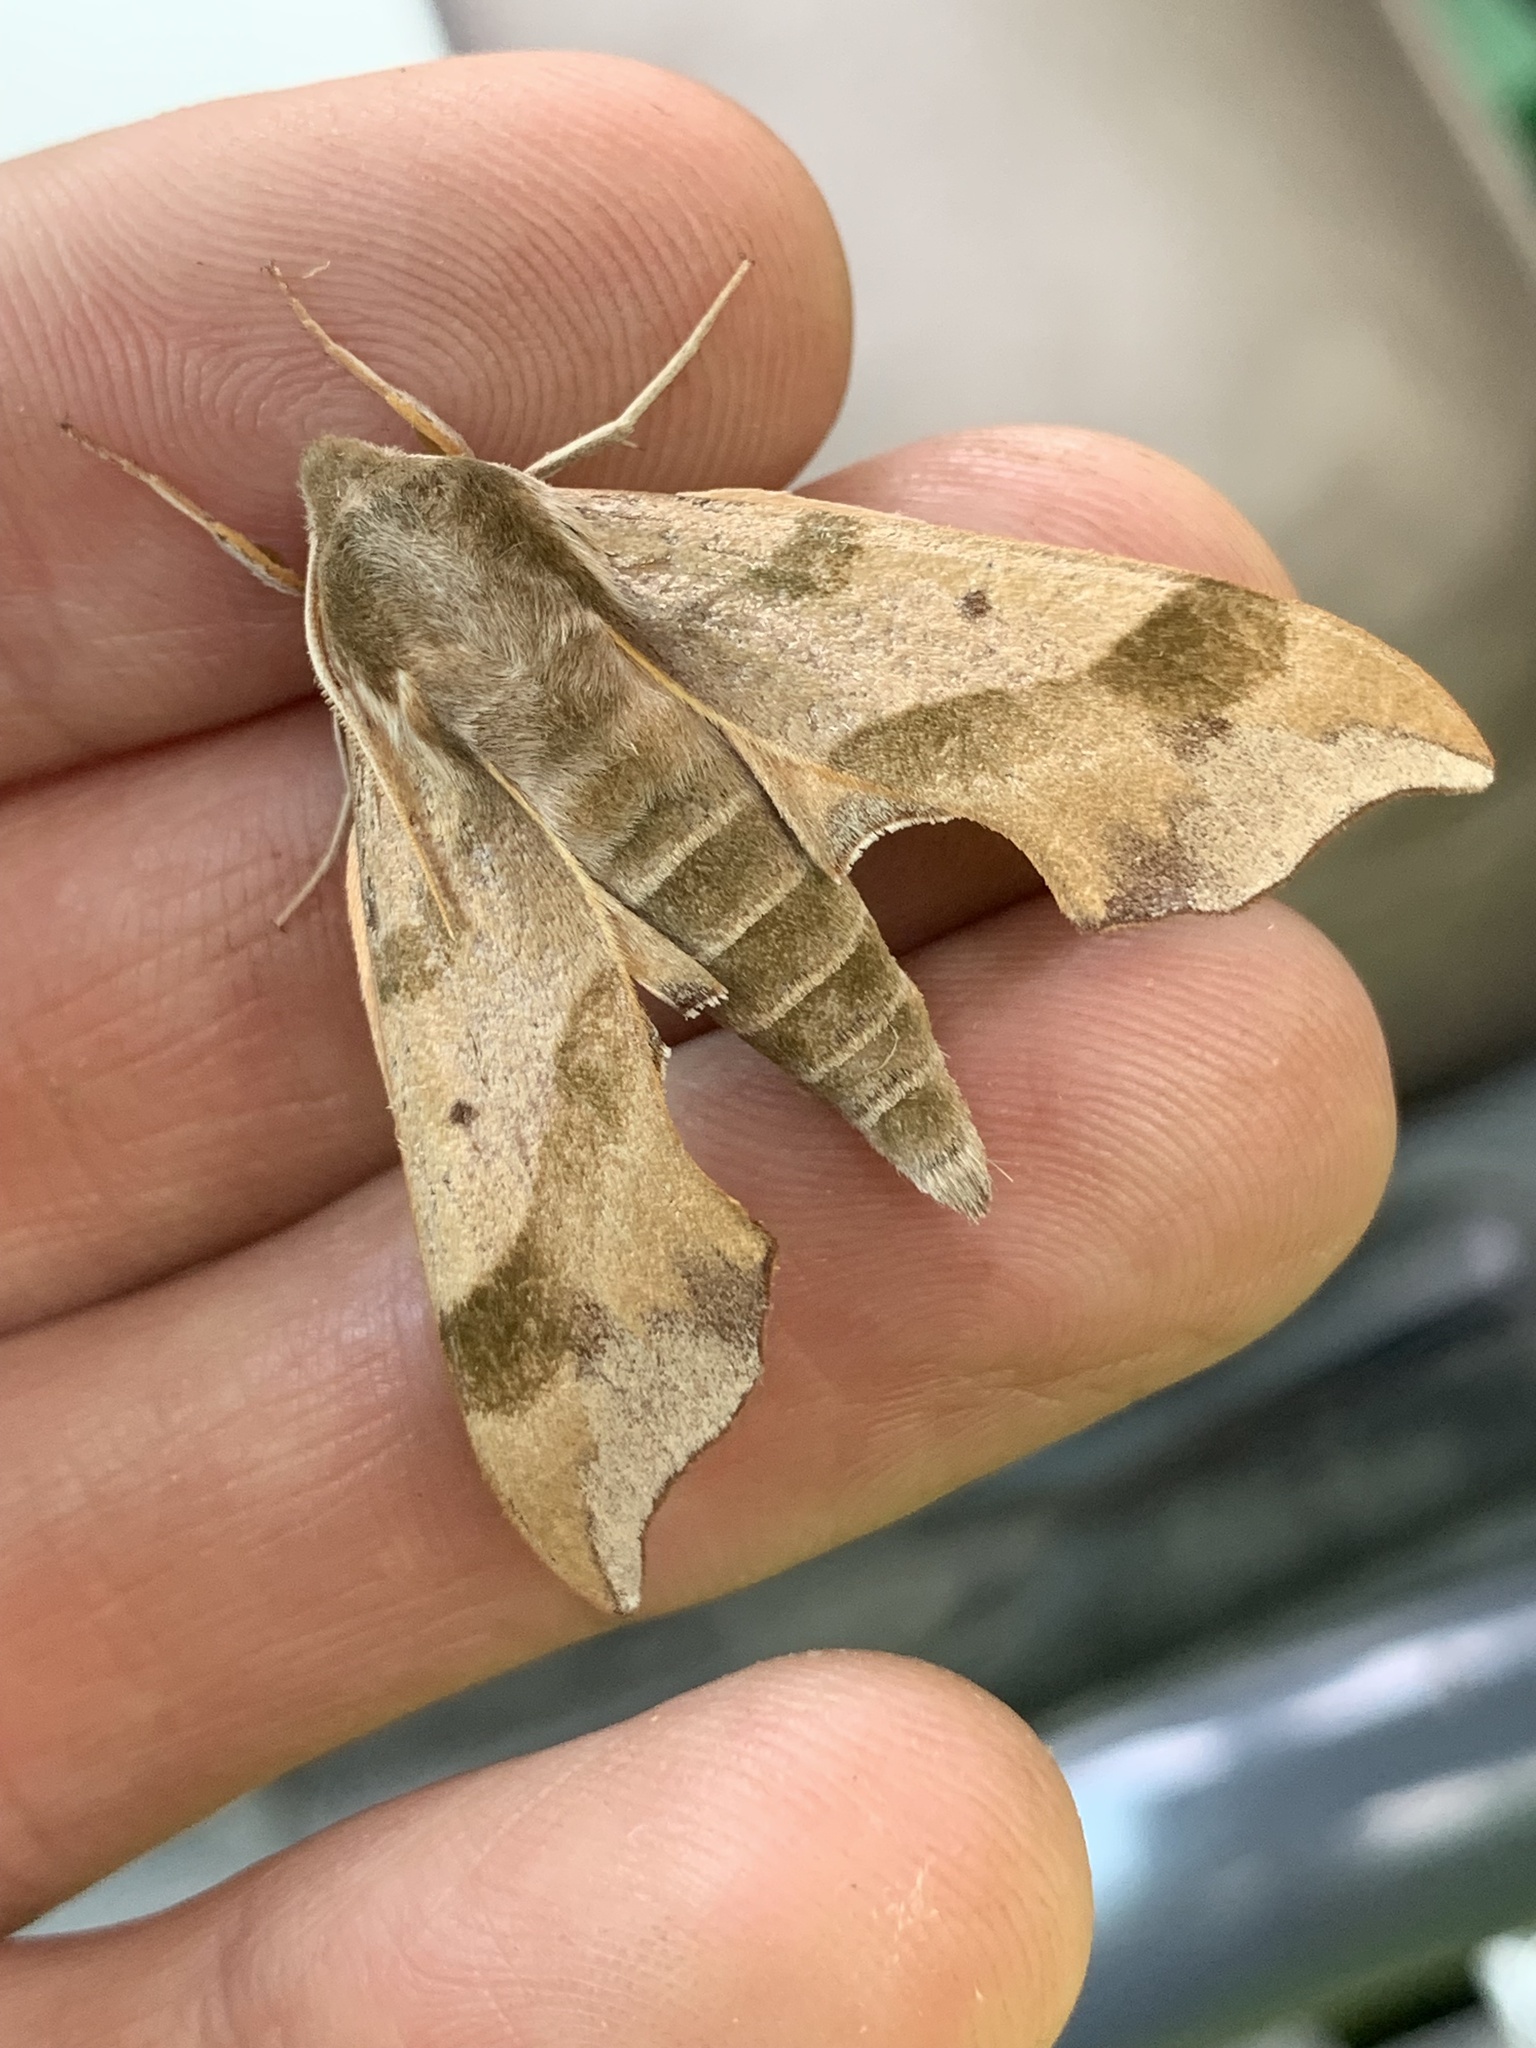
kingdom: Animalia
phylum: Arthropoda
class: Insecta
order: Lepidoptera
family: Sphingidae
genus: Darapsa
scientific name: Darapsa myron
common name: Hog sphinx
